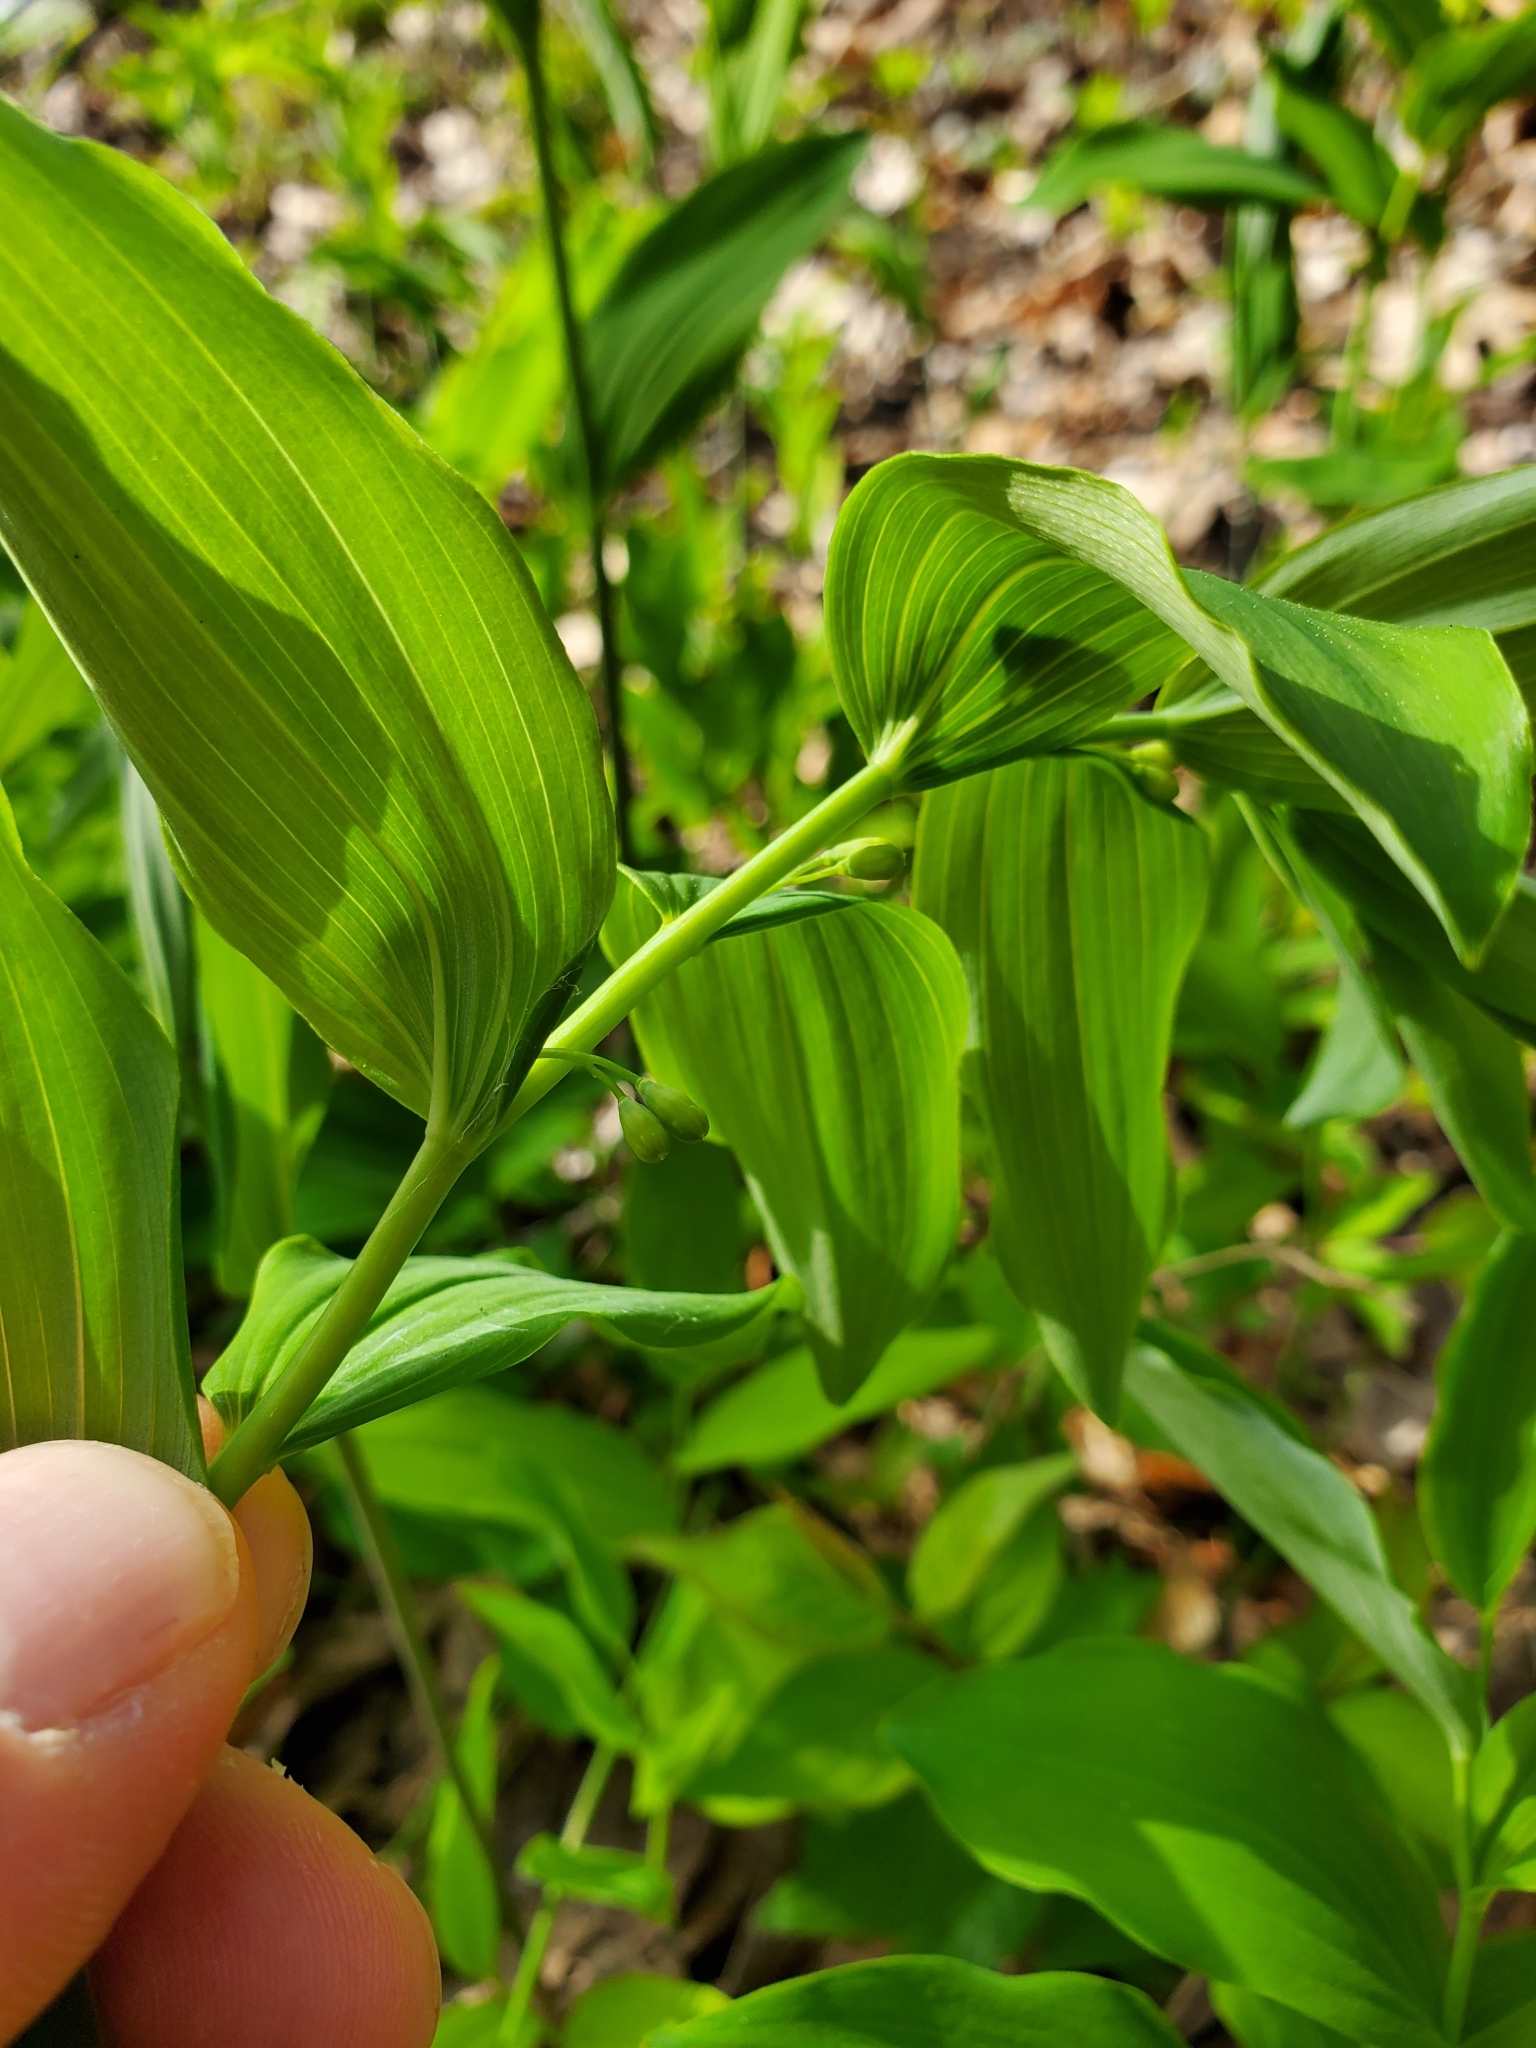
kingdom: Plantae
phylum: Tracheophyta
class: Liliopsida
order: Asparagales
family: Asparagaceae
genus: Polygonatum
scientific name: Polygonatum biflorum
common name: American solomon's-seal
